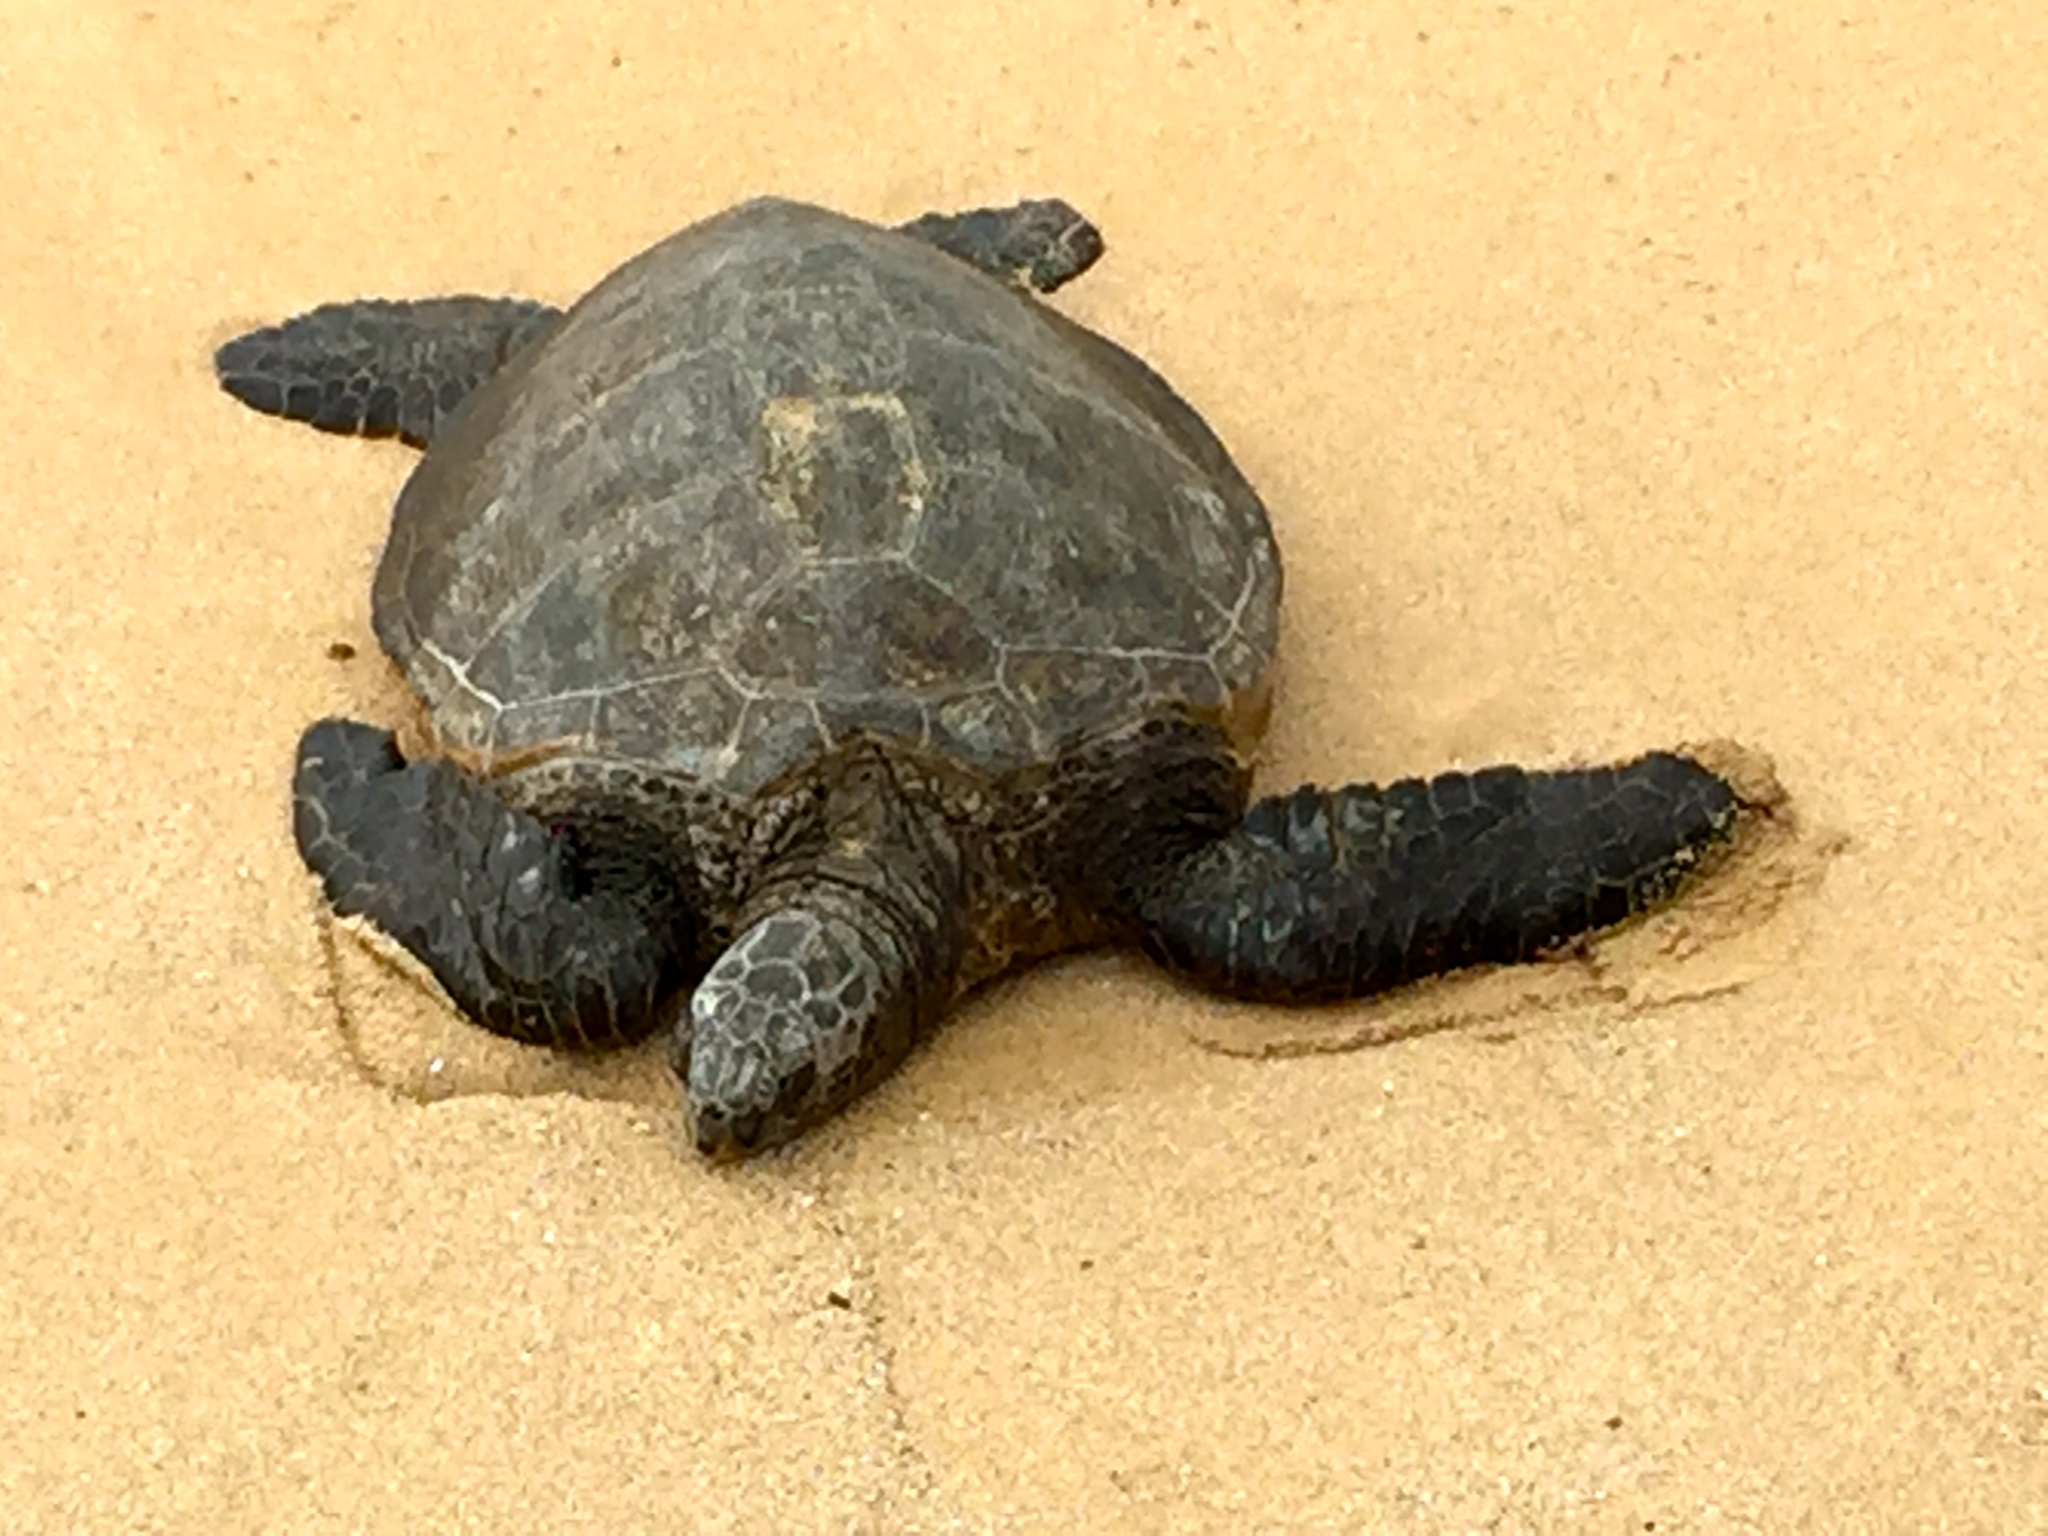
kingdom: Animalia
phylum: Chordata
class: Testudines
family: Cheloniidae
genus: Chelonia
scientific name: Chelonia mydas
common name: Green turtle
